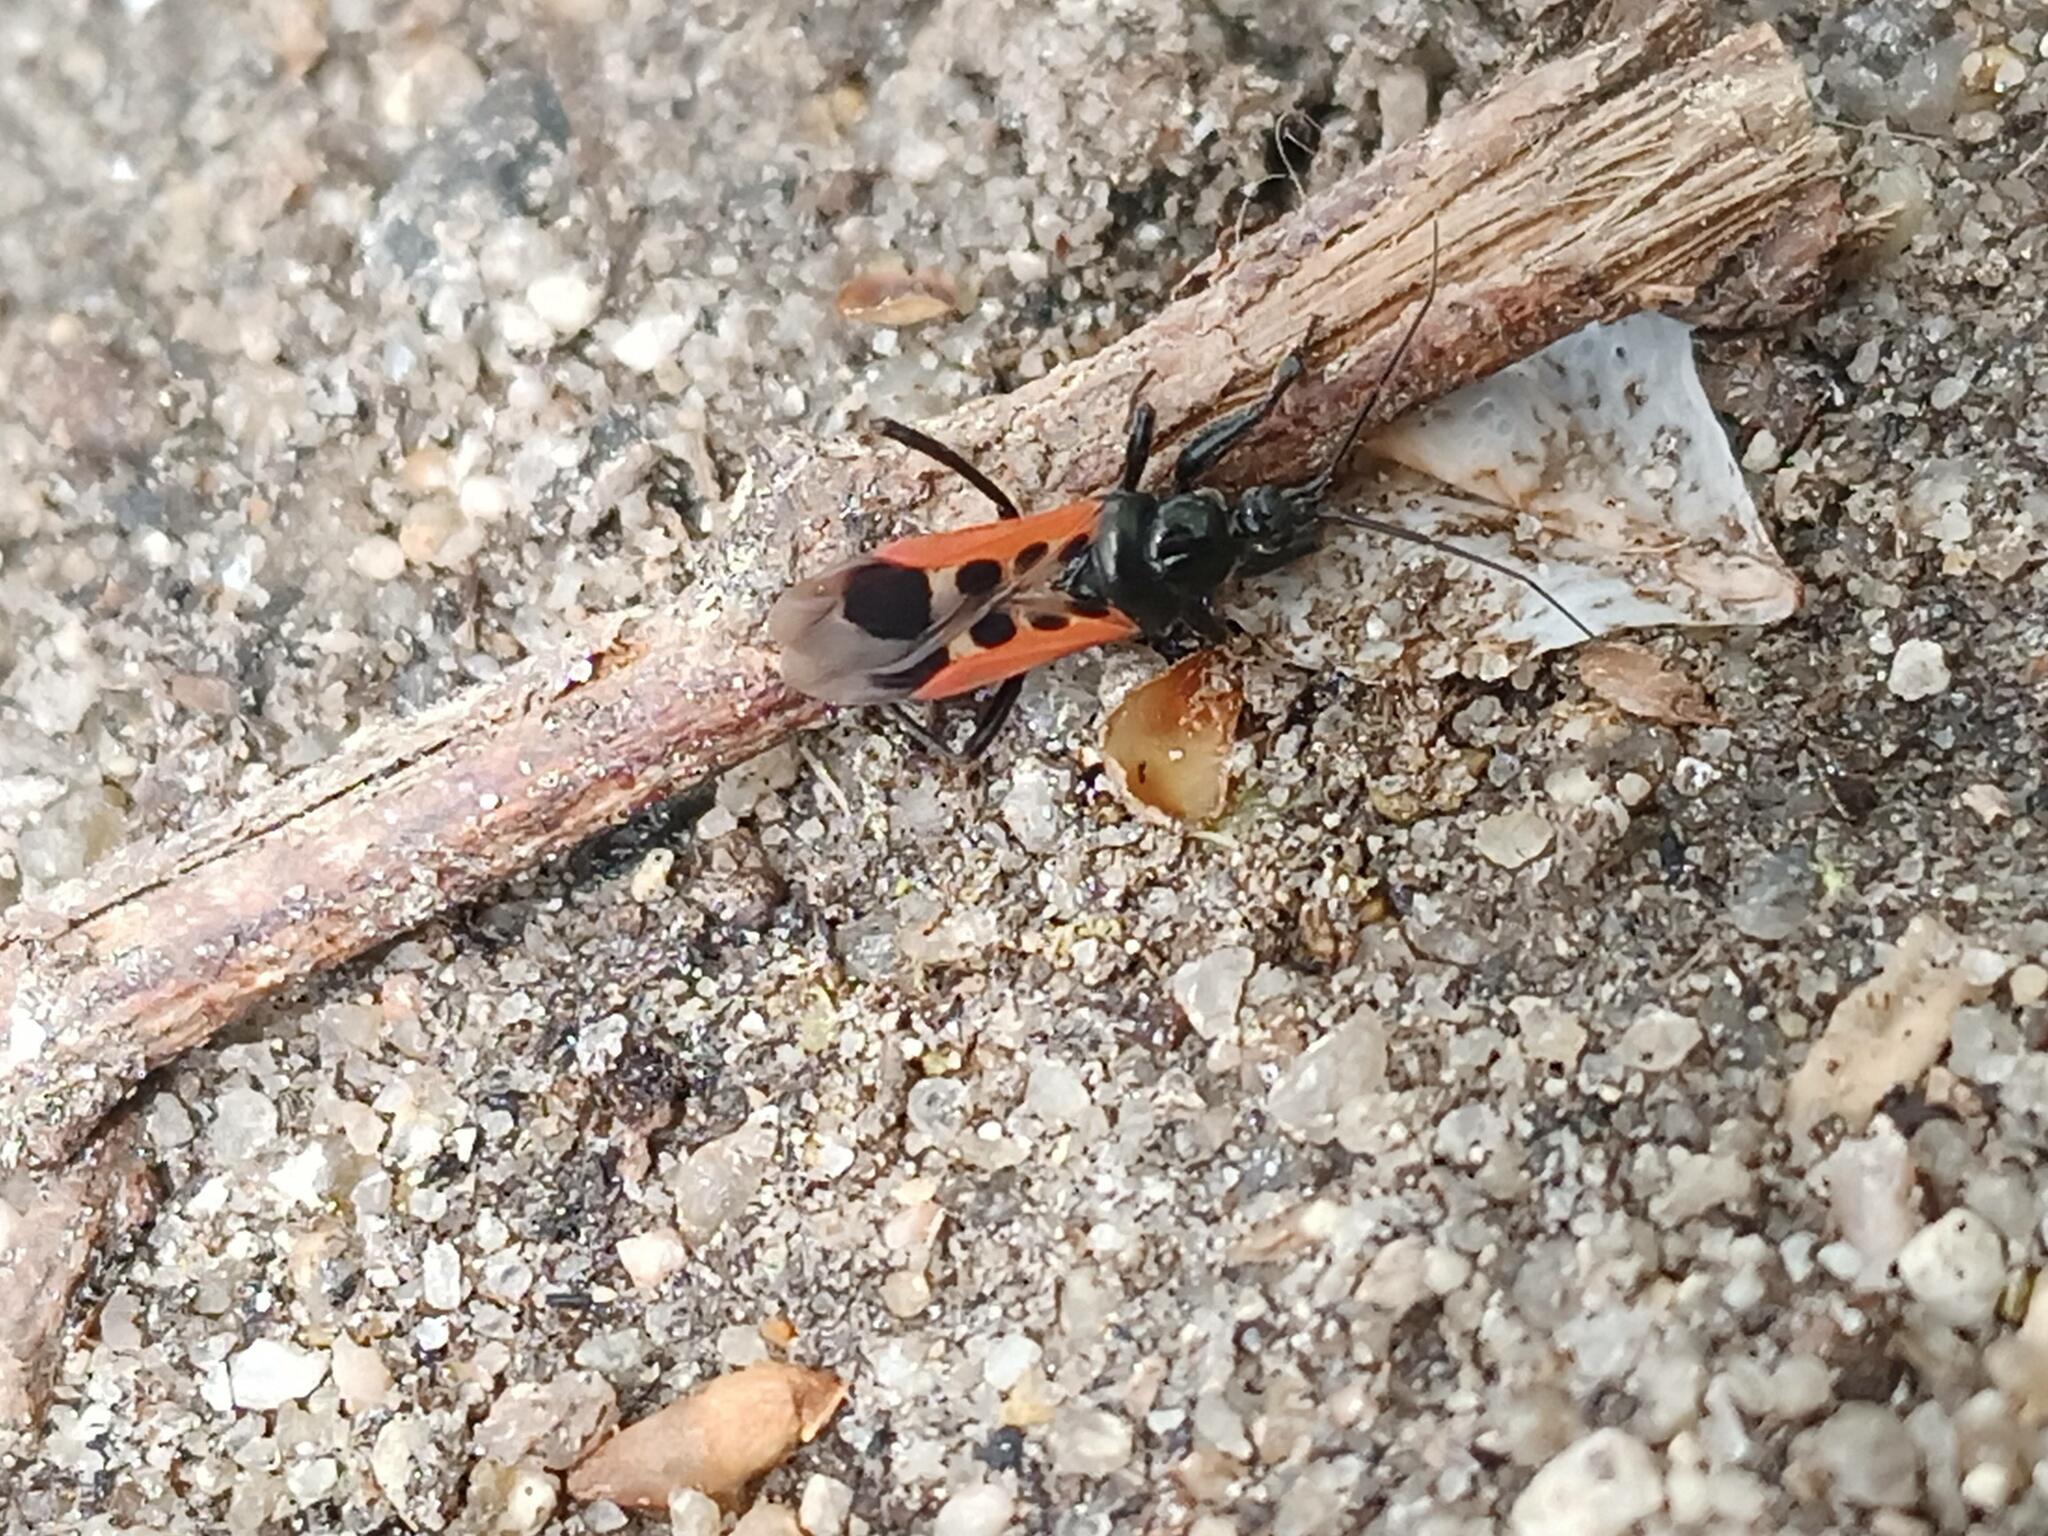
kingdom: Animalia
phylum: Arthropoda
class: Insecta
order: Hemiptera
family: Reduviidae
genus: Peirates
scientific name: Peirates stridulus
